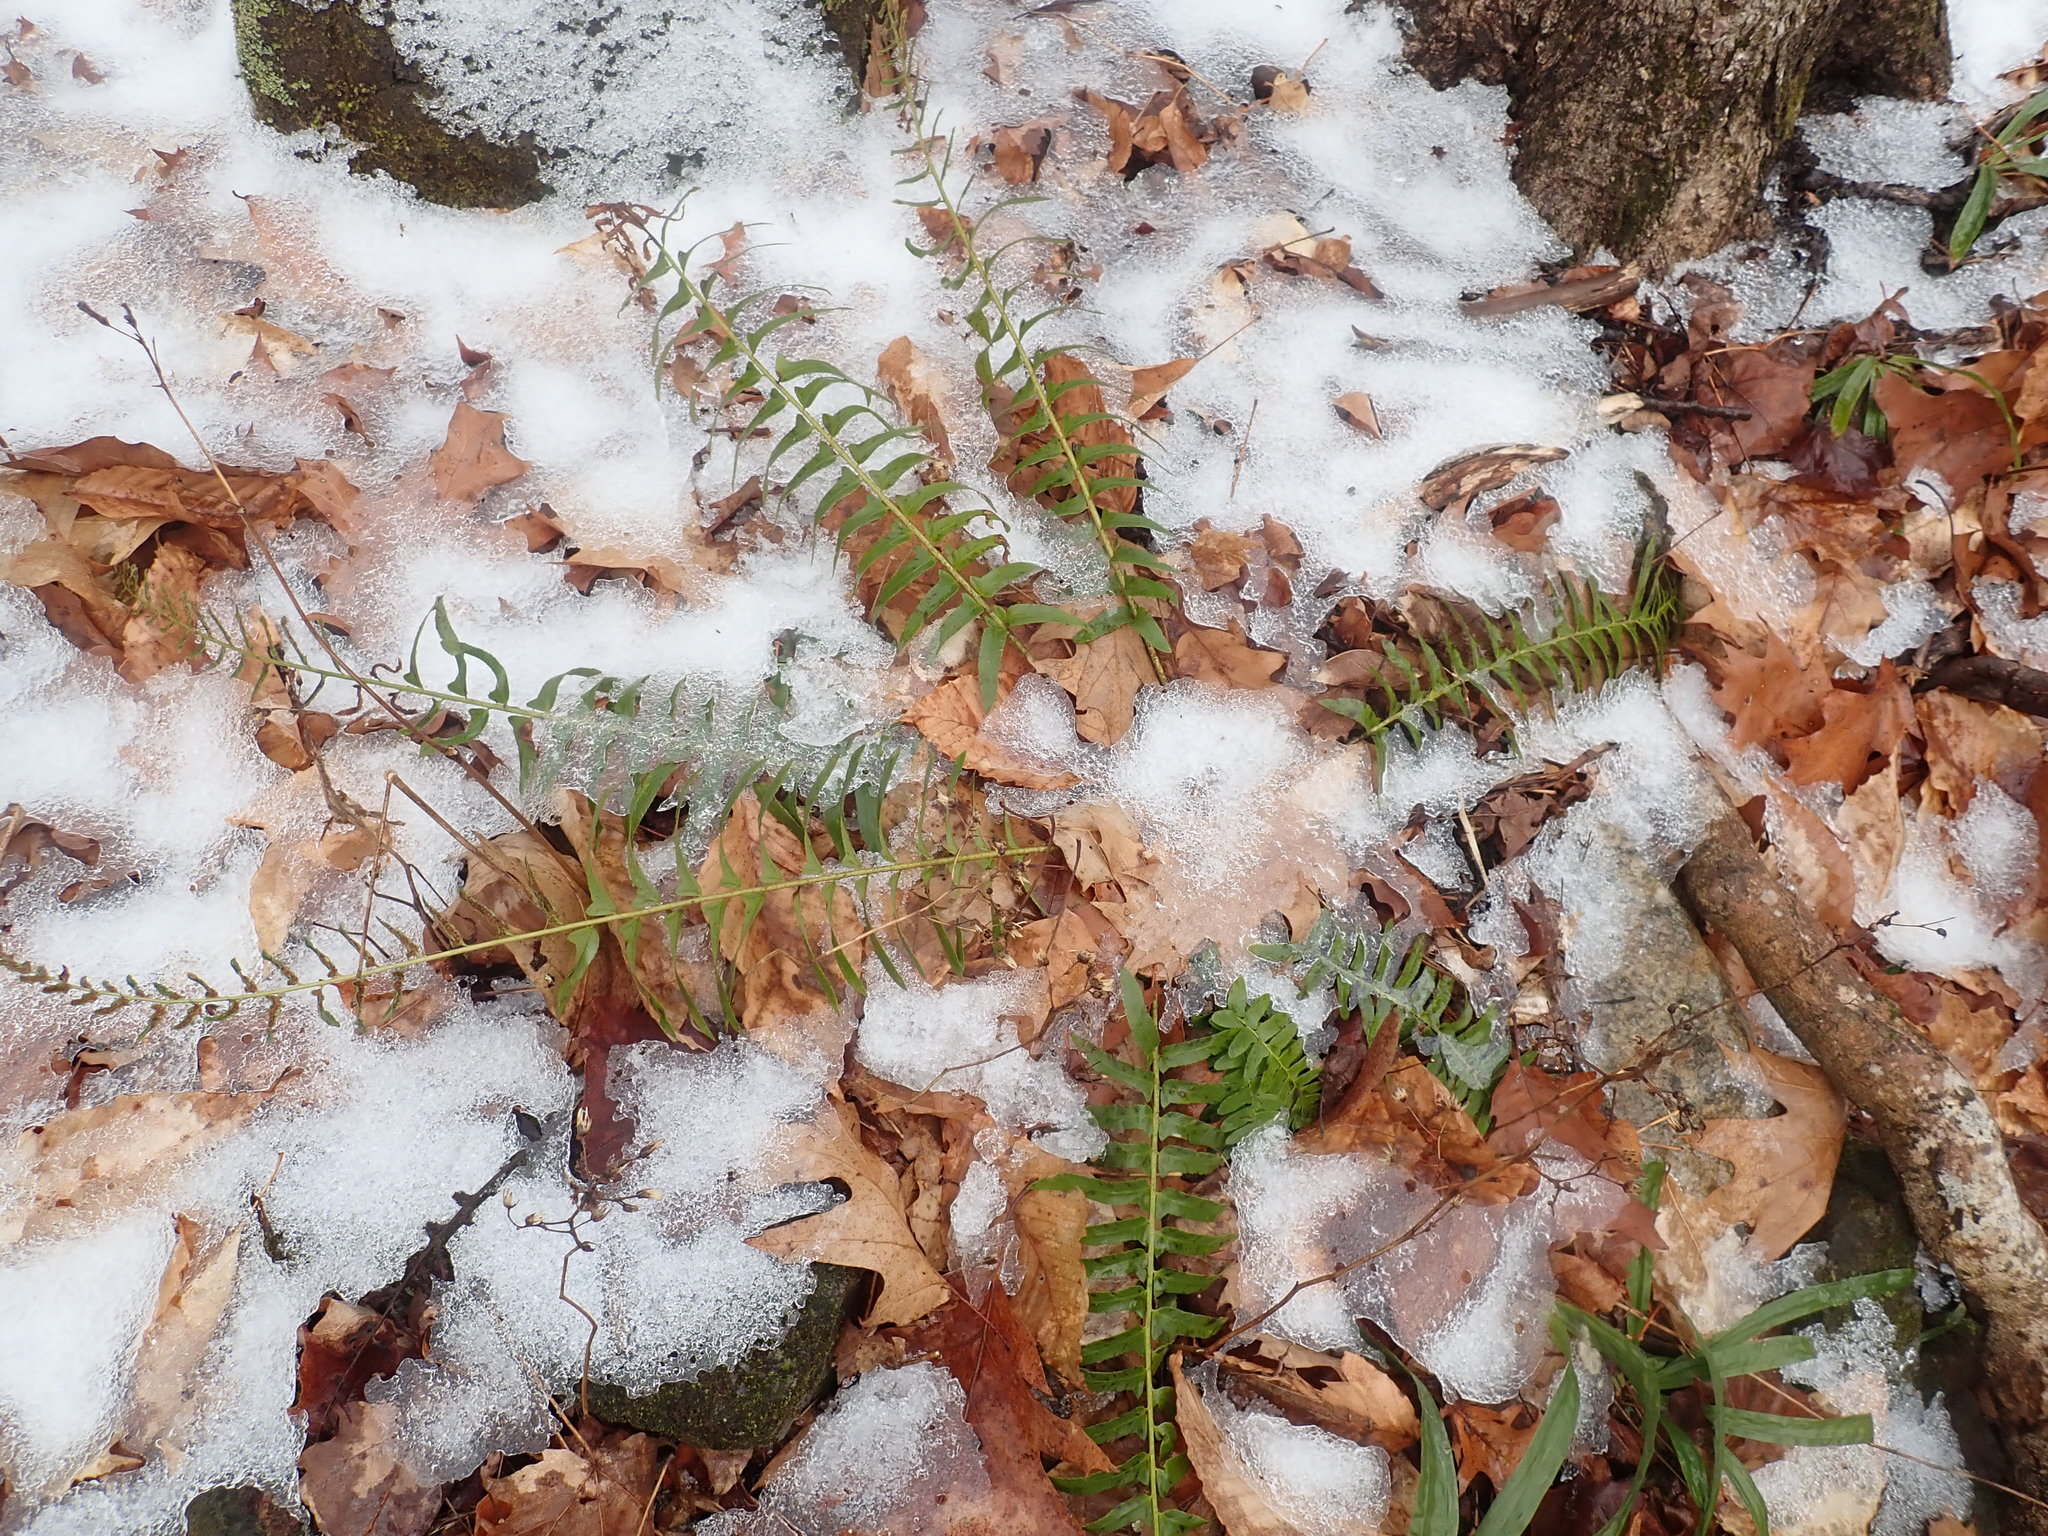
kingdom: Plantae
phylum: Tracheophyta
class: Polypodiopsida
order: Polypodiales
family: Dryopteridaceae
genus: Polystichum
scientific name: Polystichum acrostichoides
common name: Christmas fern
